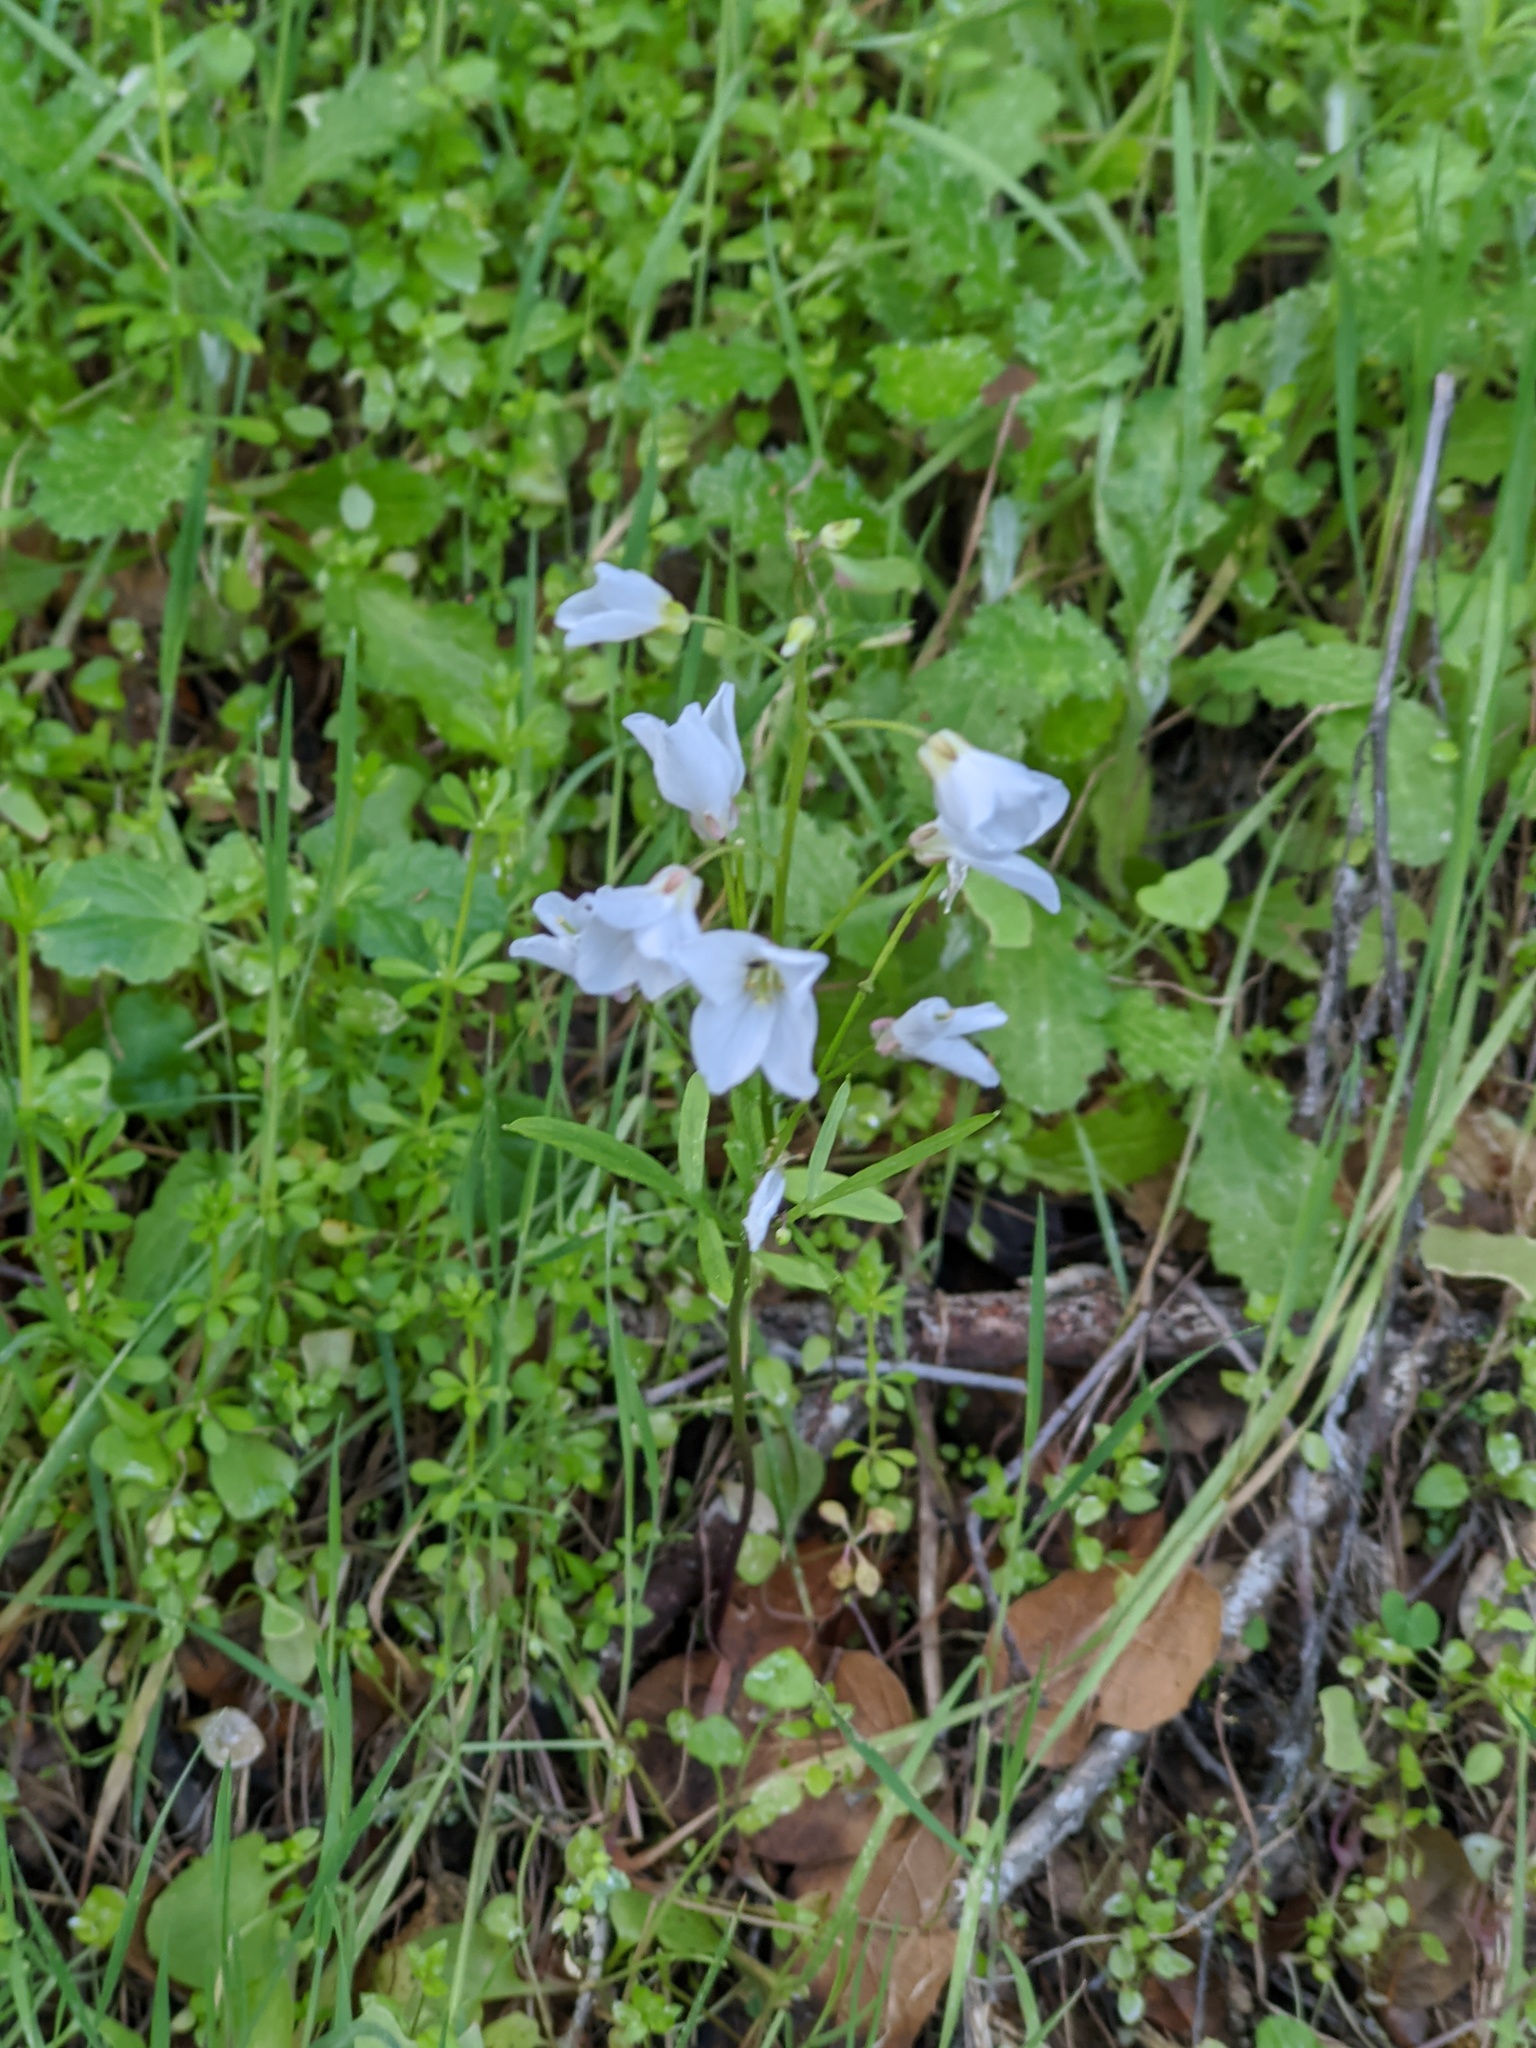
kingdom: Plantae
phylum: Tracheophyta
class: Magnoliopsida
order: Brassicales
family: Brassicaceae
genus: Cardamine
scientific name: Cardamine californica
